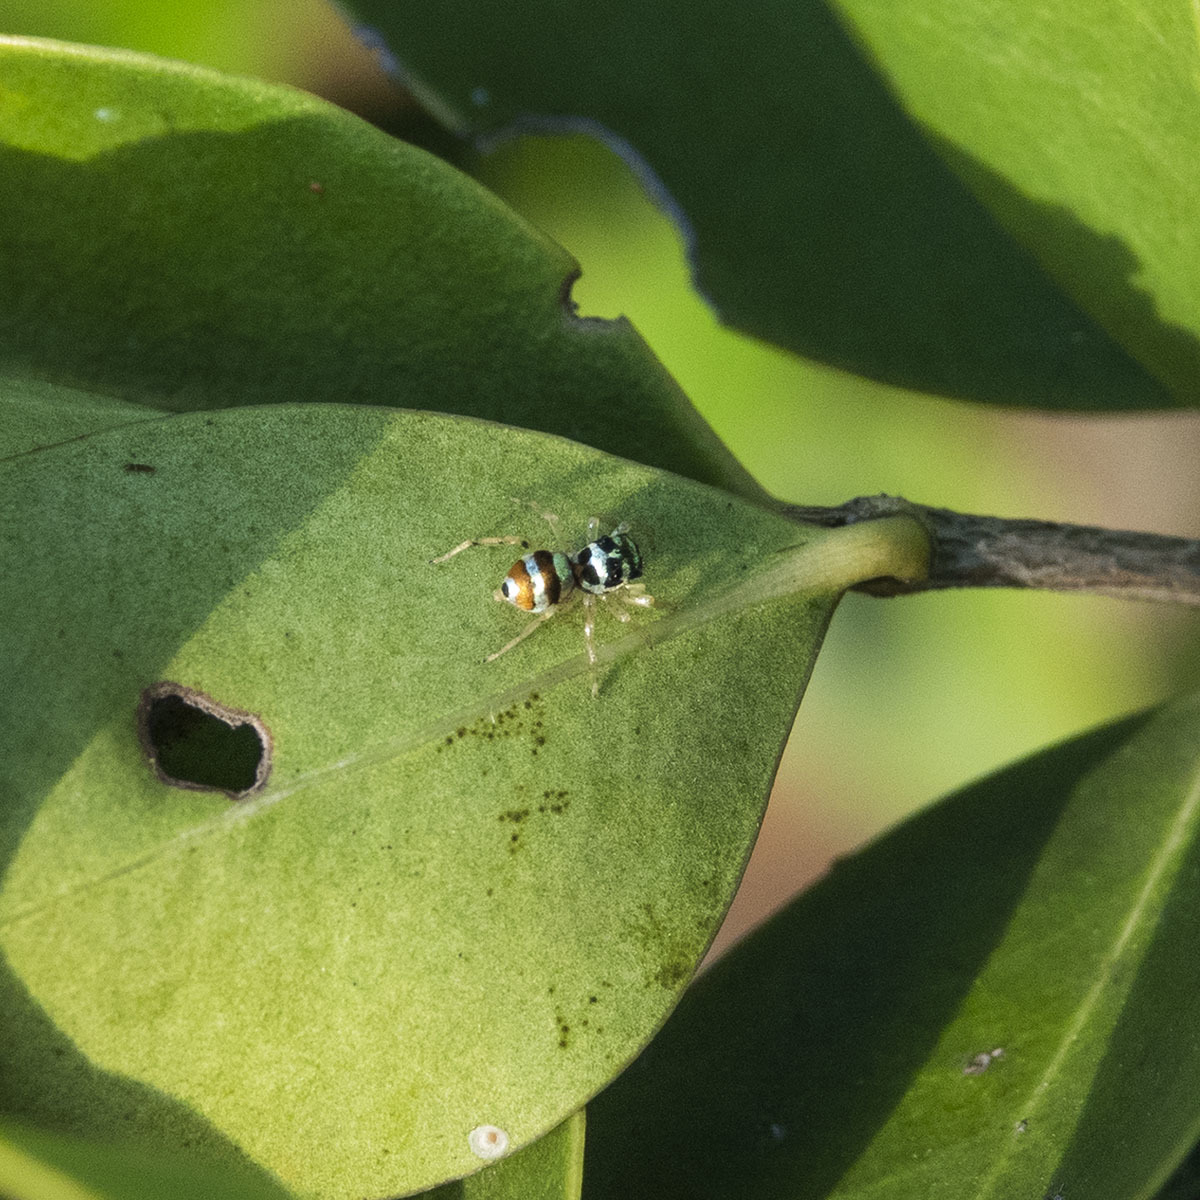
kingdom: Animalia
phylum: Arthropoda
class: Arachnida
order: Araneae
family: Salticidae
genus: Phintella
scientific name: Phintella vittata
